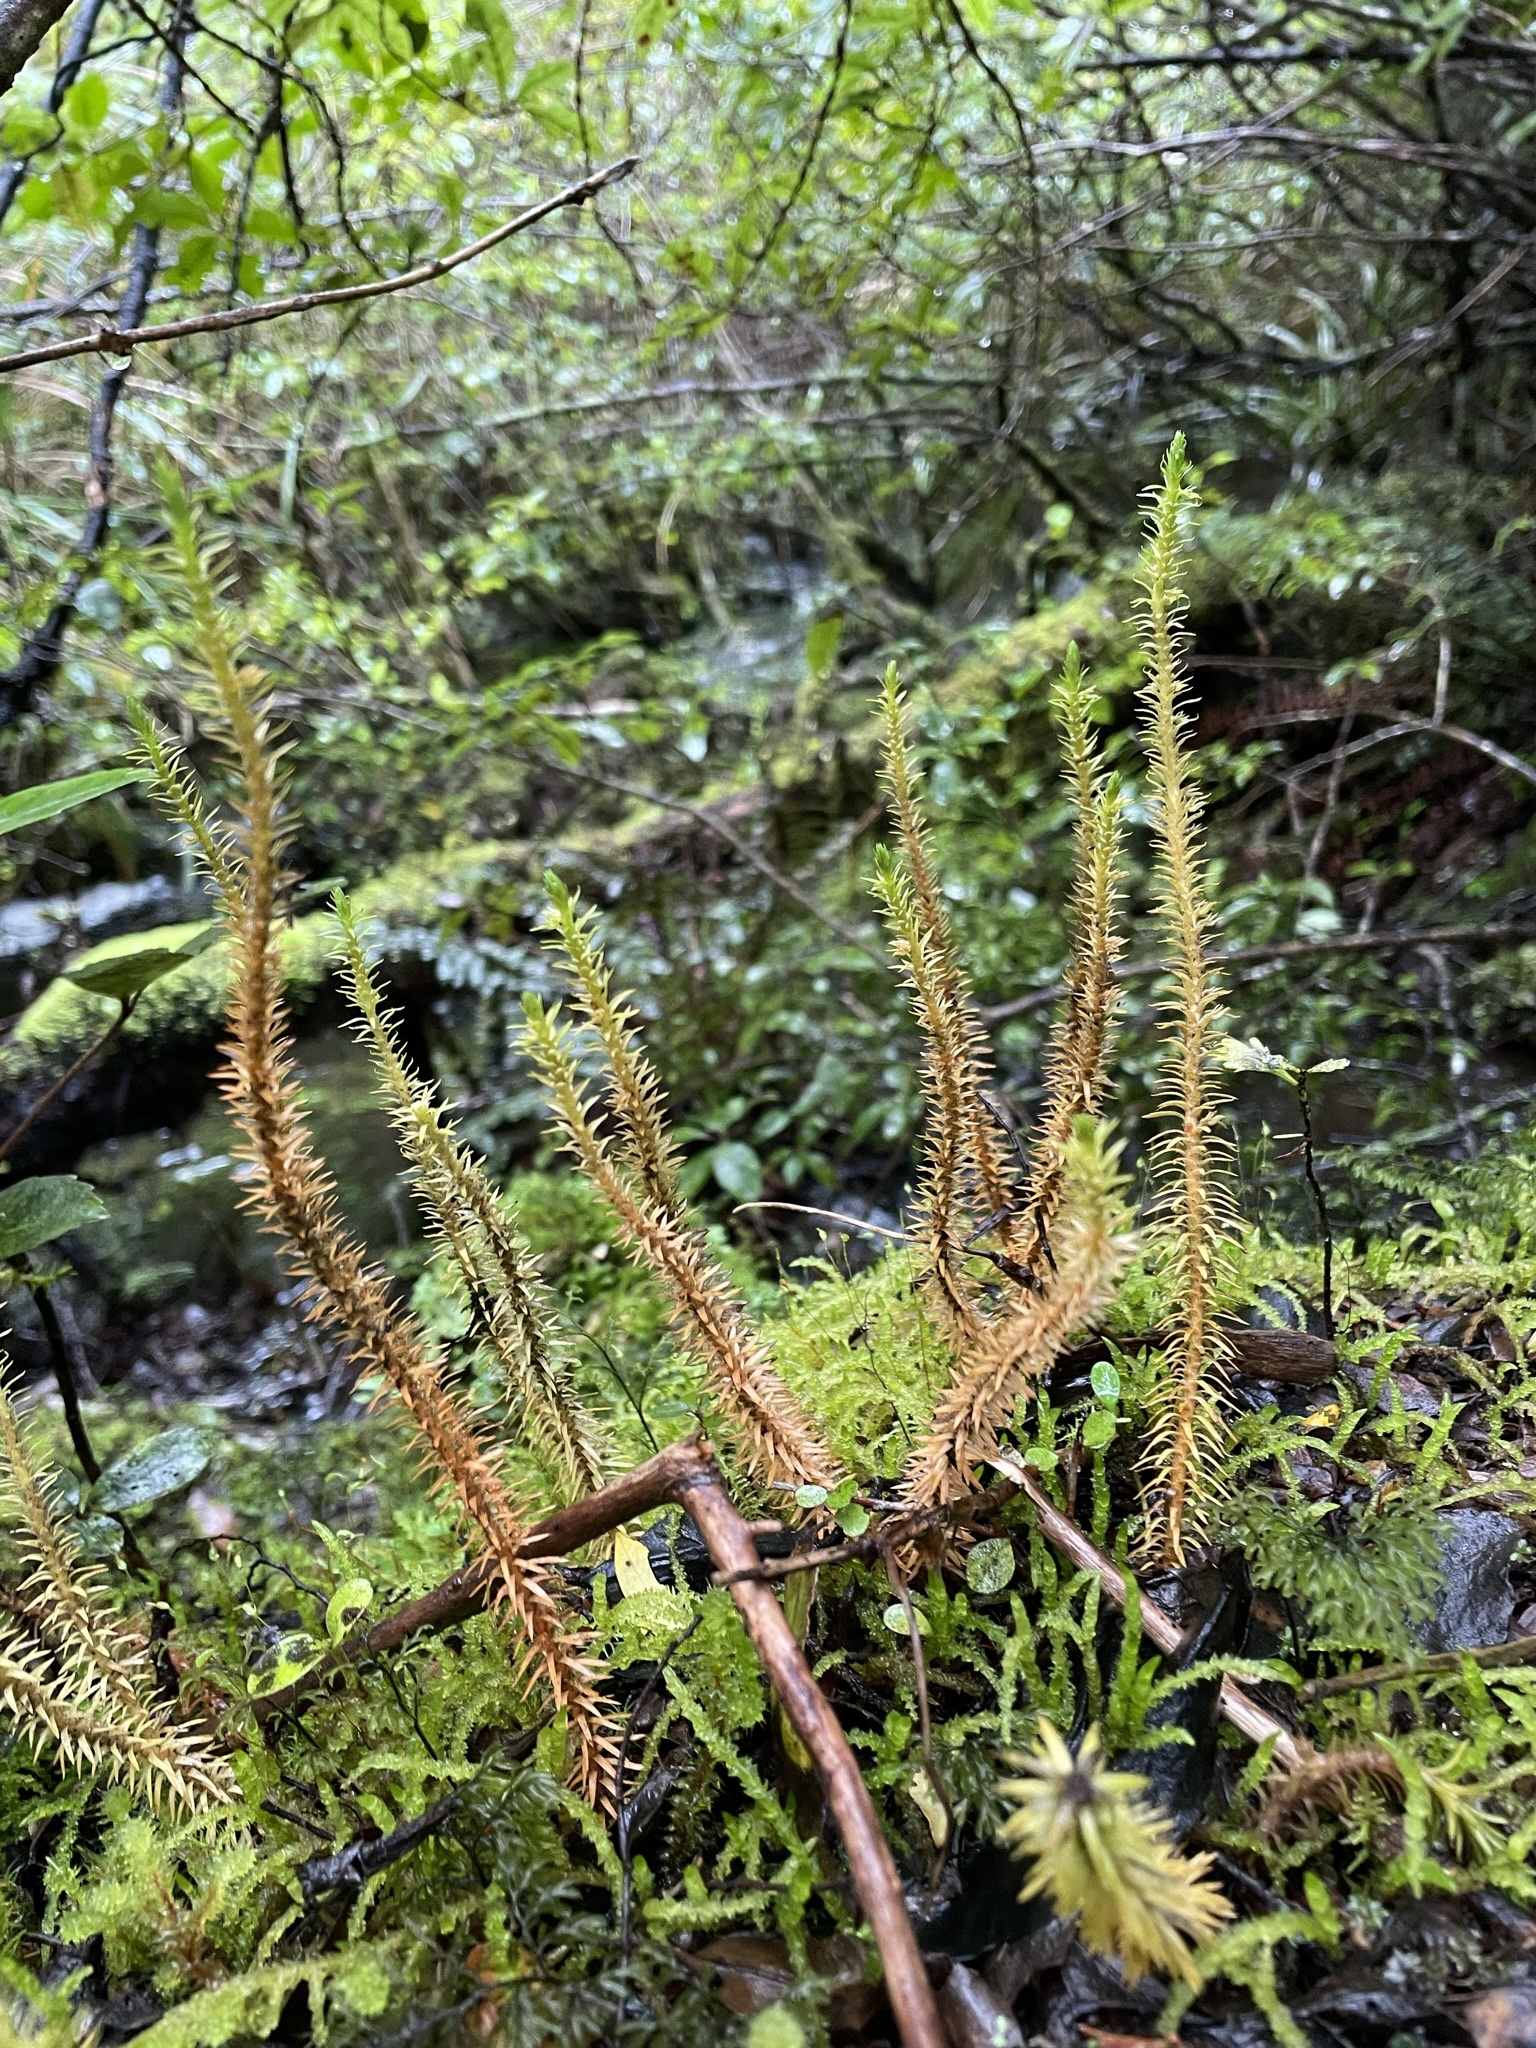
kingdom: Plantae
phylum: Tracheophyta
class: Lycopodiopsida
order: Lycopodiales
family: Lycopodiaceae
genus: Huperzia
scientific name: Huperzia australiana
